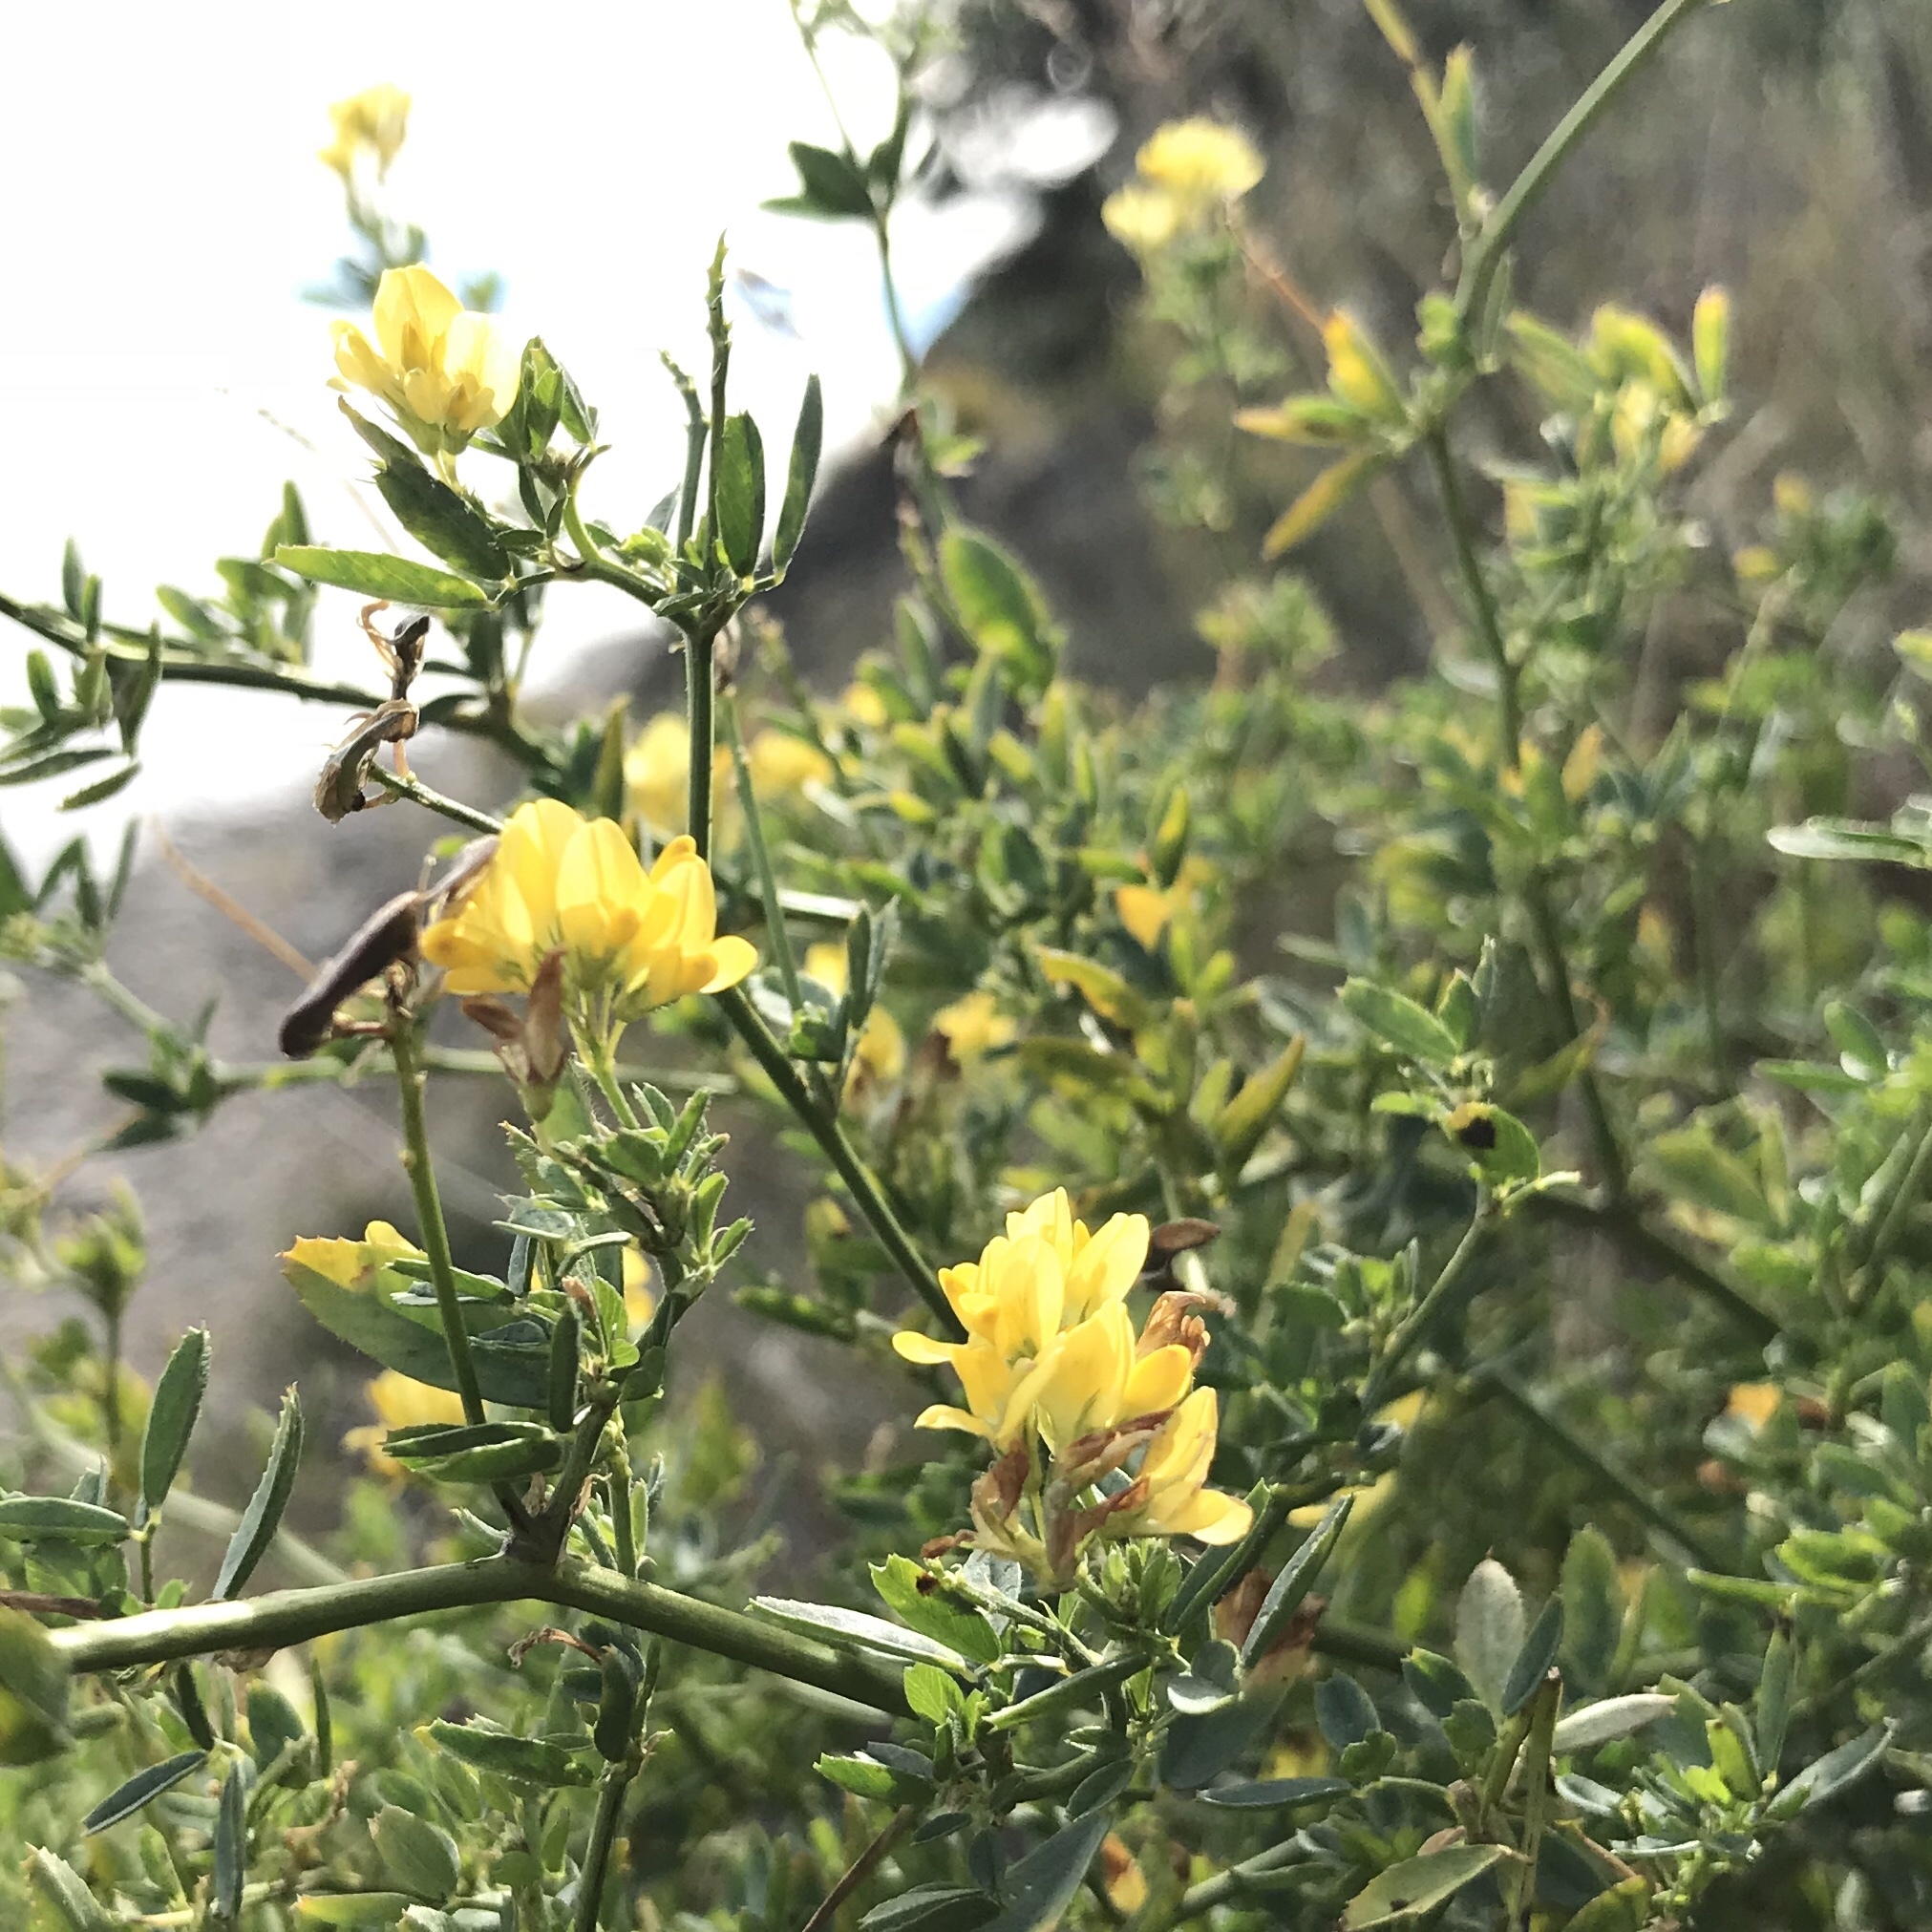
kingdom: Plantae
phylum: Tracheophyta
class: Magnoliopsida
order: Fabales
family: Fabaceae
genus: Medicago
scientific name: Medicago falcata
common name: Sickle medick
